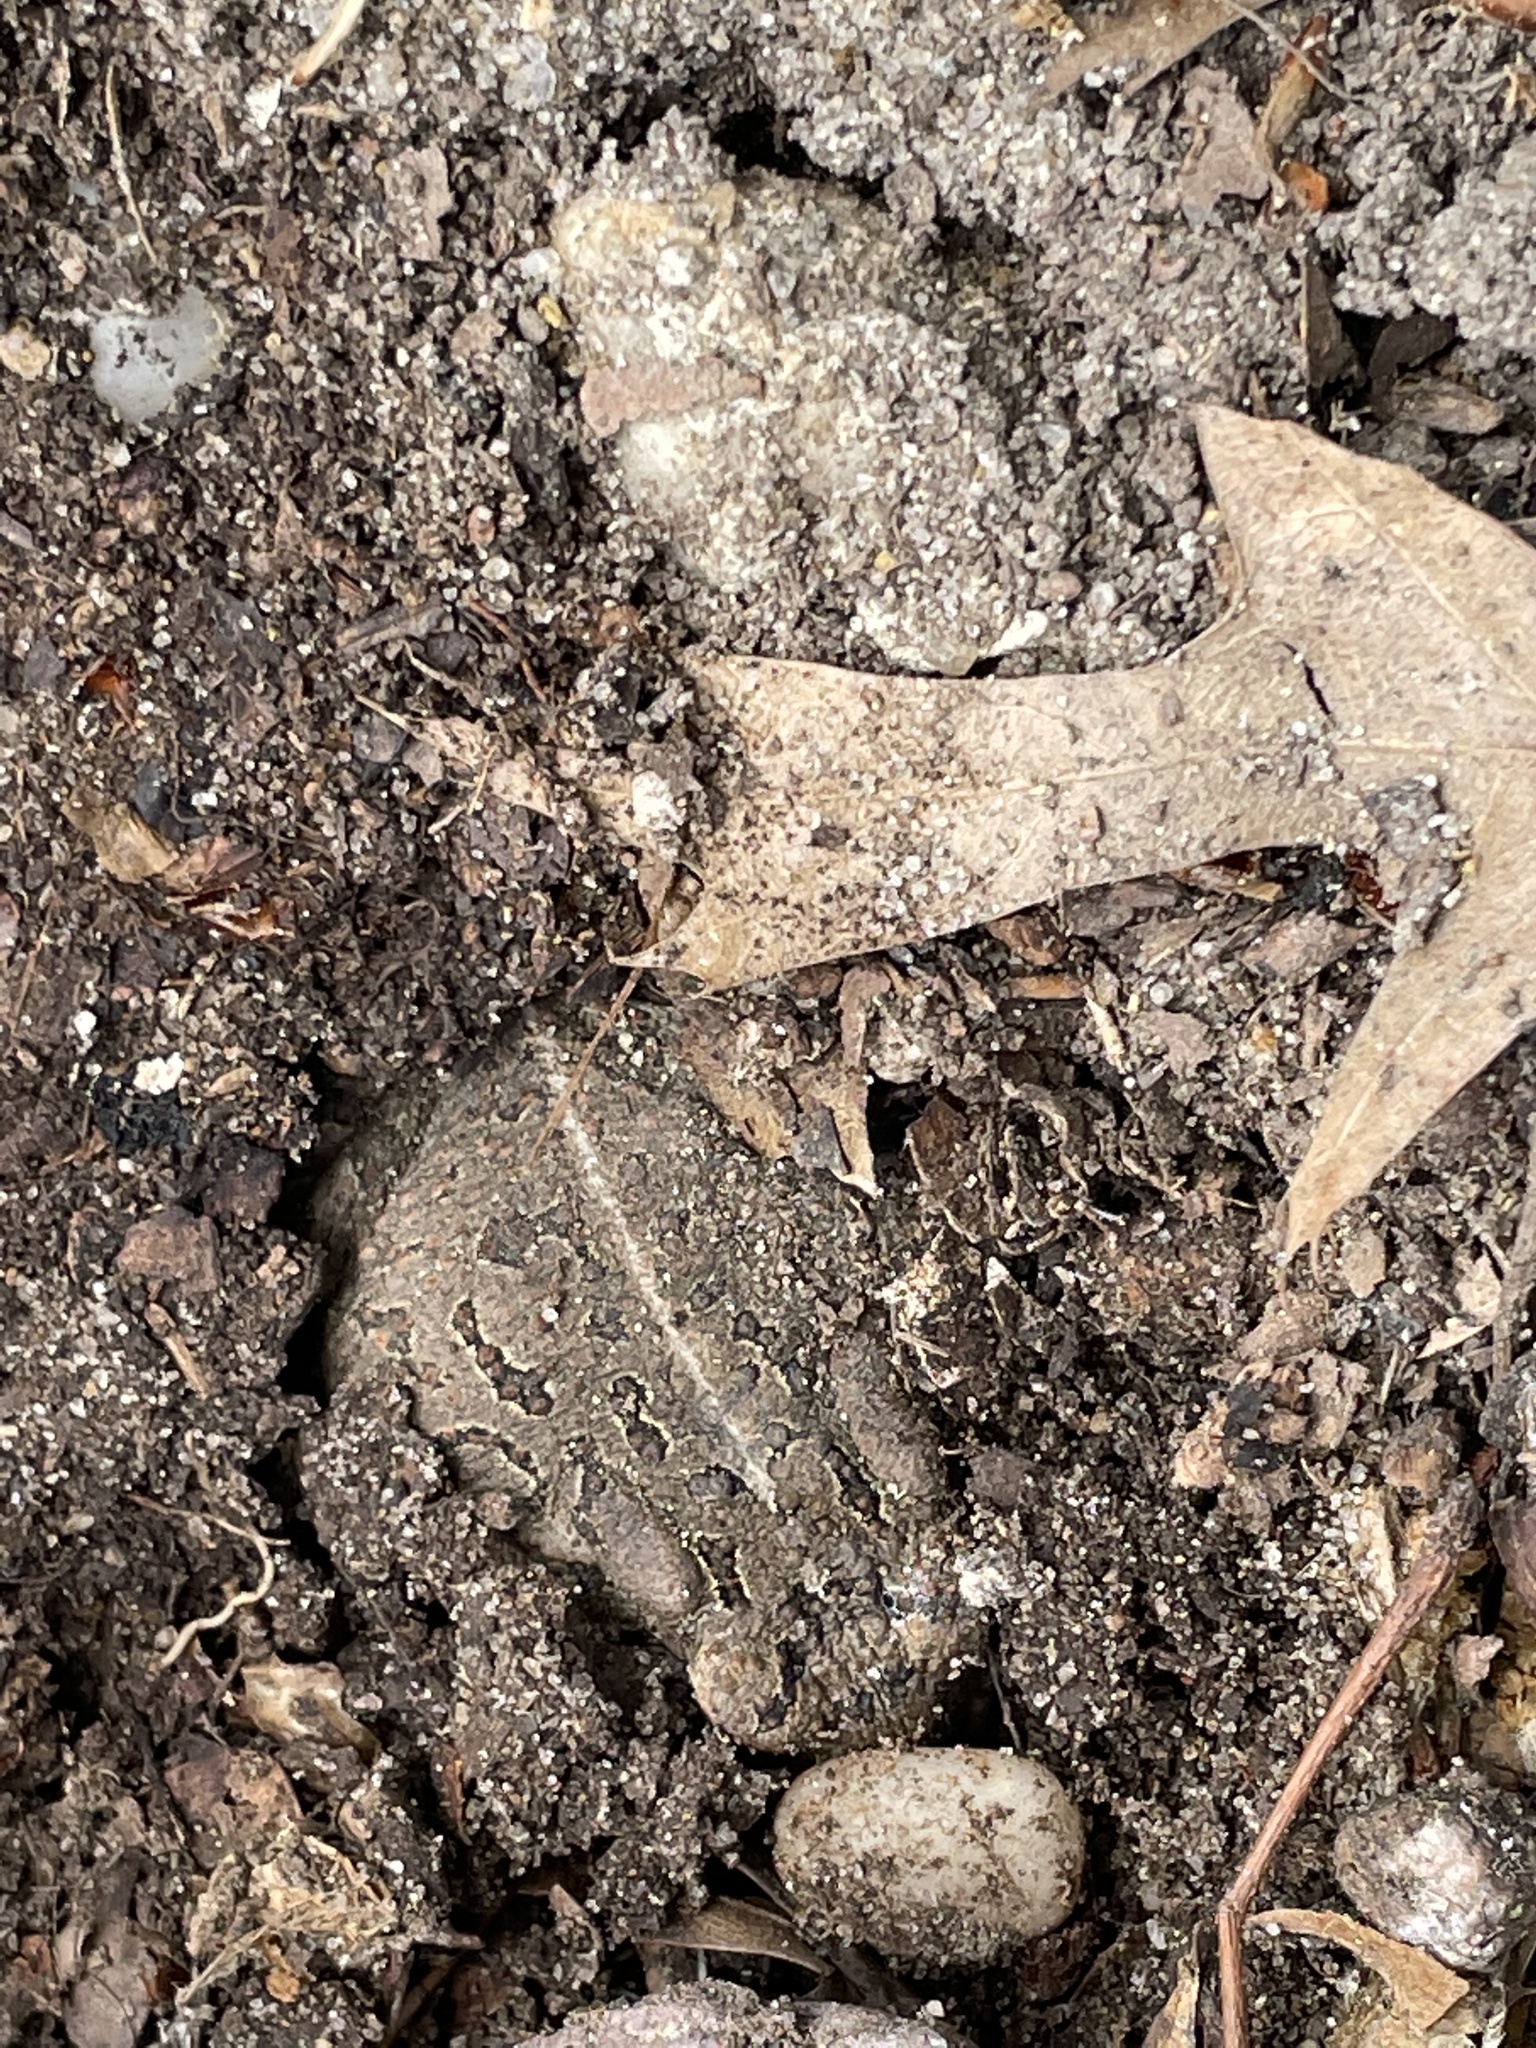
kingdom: Animalia
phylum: Chordata
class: Amphibia
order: Anura
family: Bufonidae
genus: Anaxyrus
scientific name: Anaxyrus fowleri
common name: Fowler's toad
